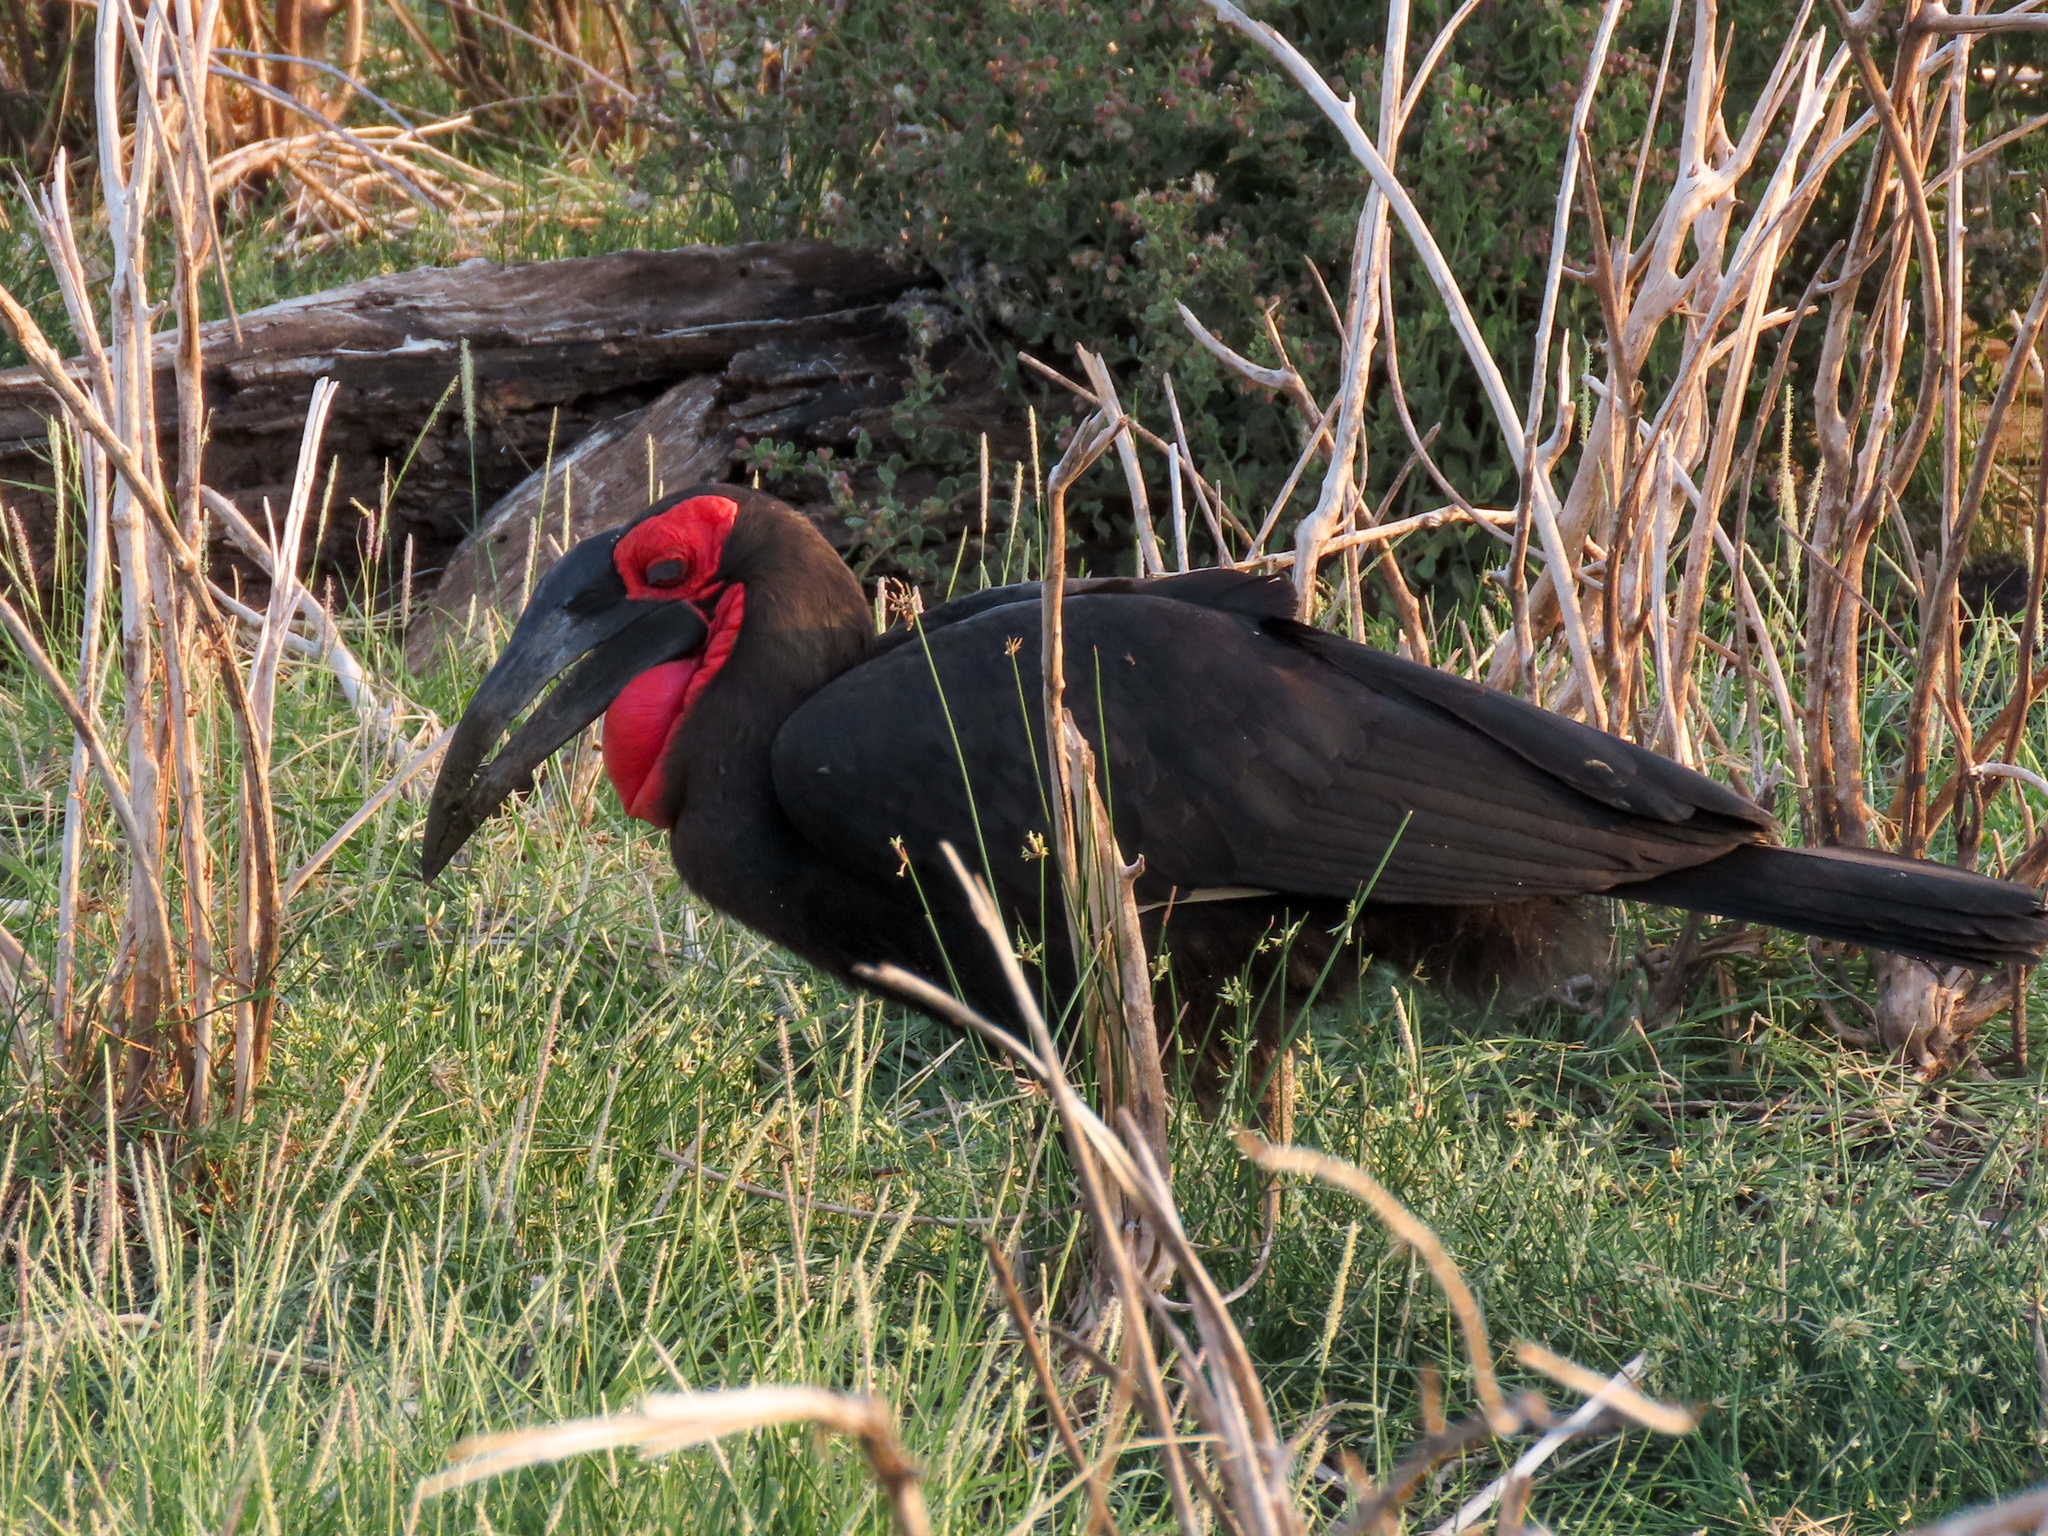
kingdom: Animalia
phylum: Chordata
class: Aves
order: Bucerotiformes
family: Bucorvidae
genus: Bucorvus
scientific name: Bucorvus leadbeateri
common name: Southern ground-hornbill
